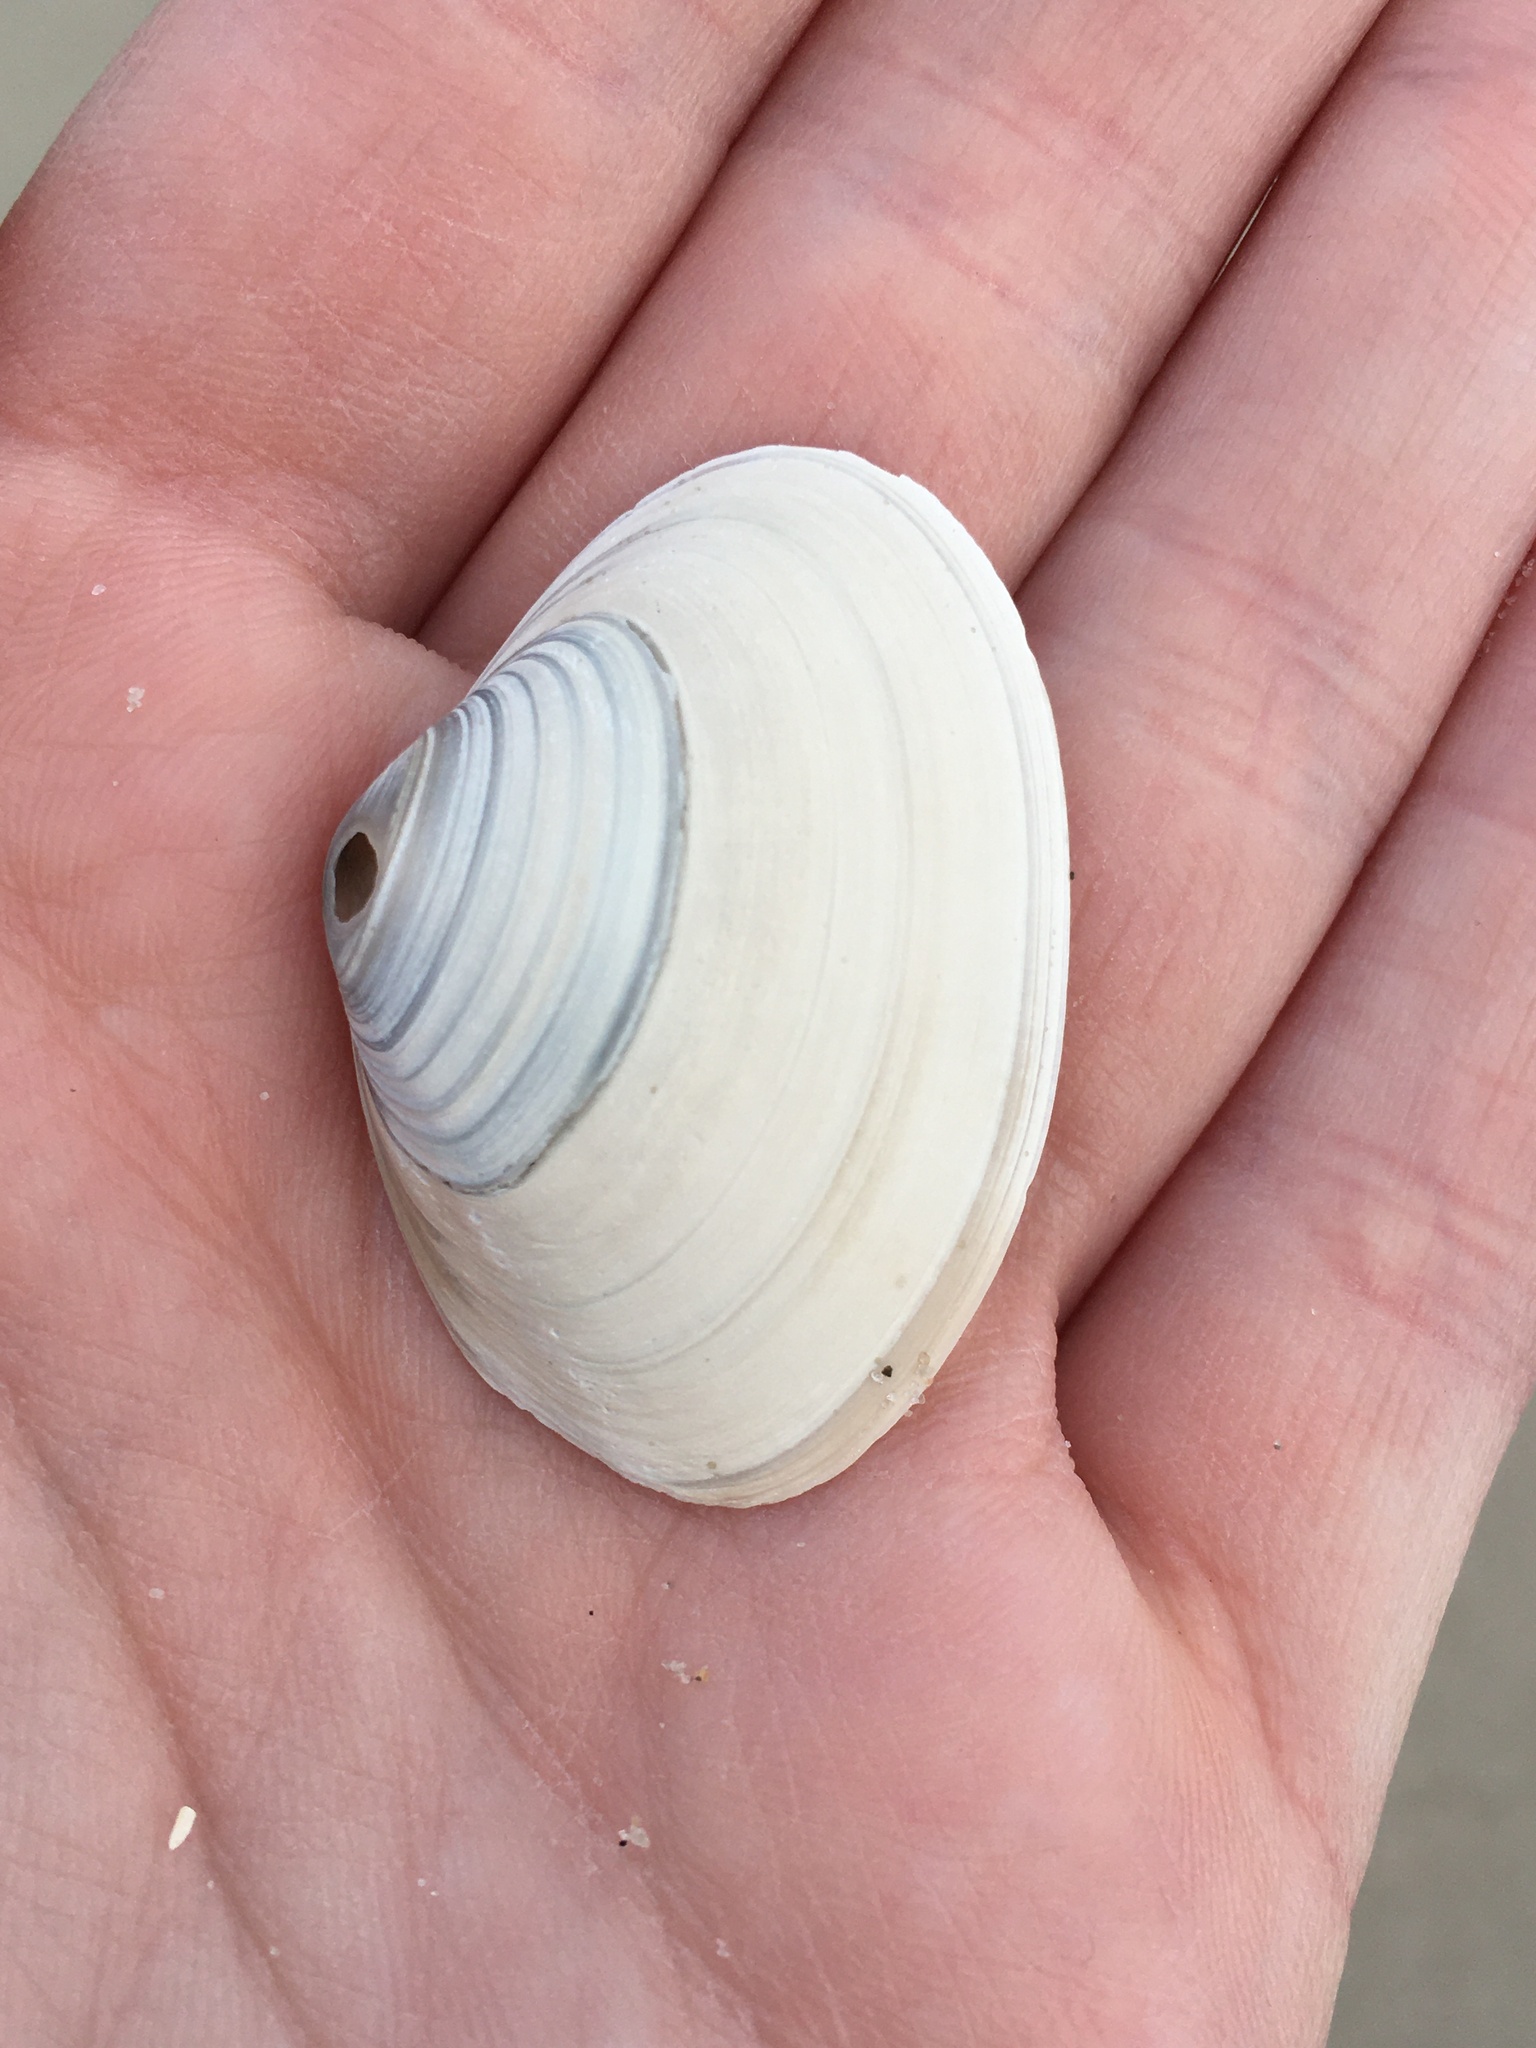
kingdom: Animalia
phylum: Mollusca
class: Bivalvia
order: Venerida
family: Mactridae
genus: Spisula
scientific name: Spisula solidissima
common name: Atlantic surf clam
